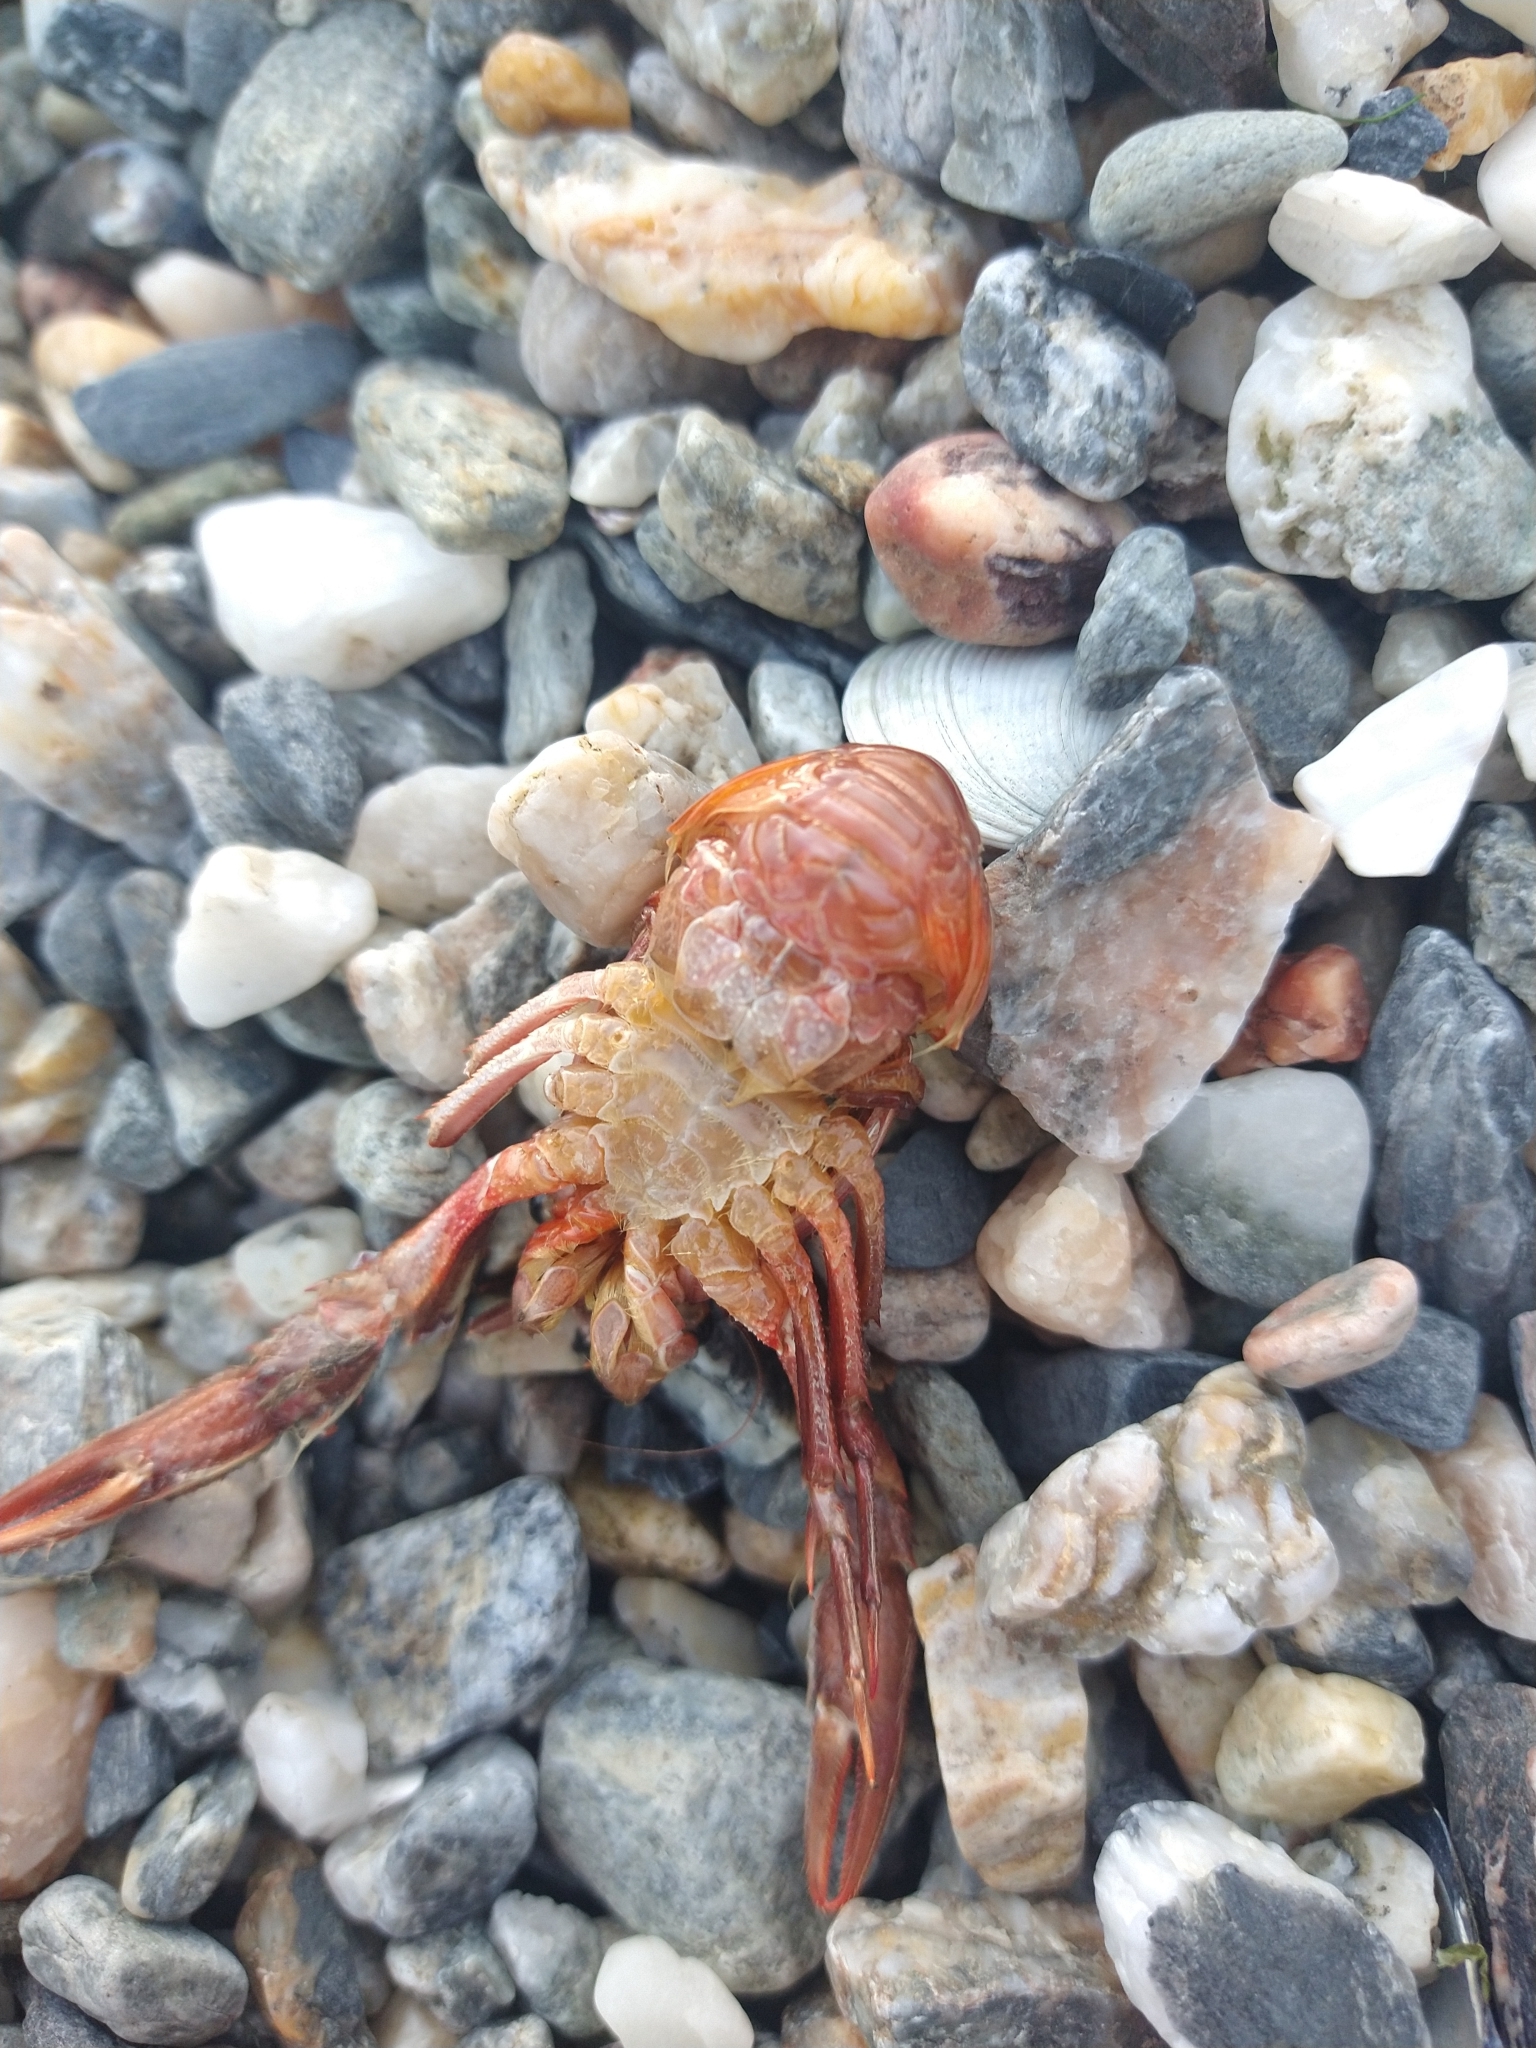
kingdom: Animalia
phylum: Arthropoda
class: Malacostraca
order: Decapoda
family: Munididae
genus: Grimothea
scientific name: Grimothea gregaria
